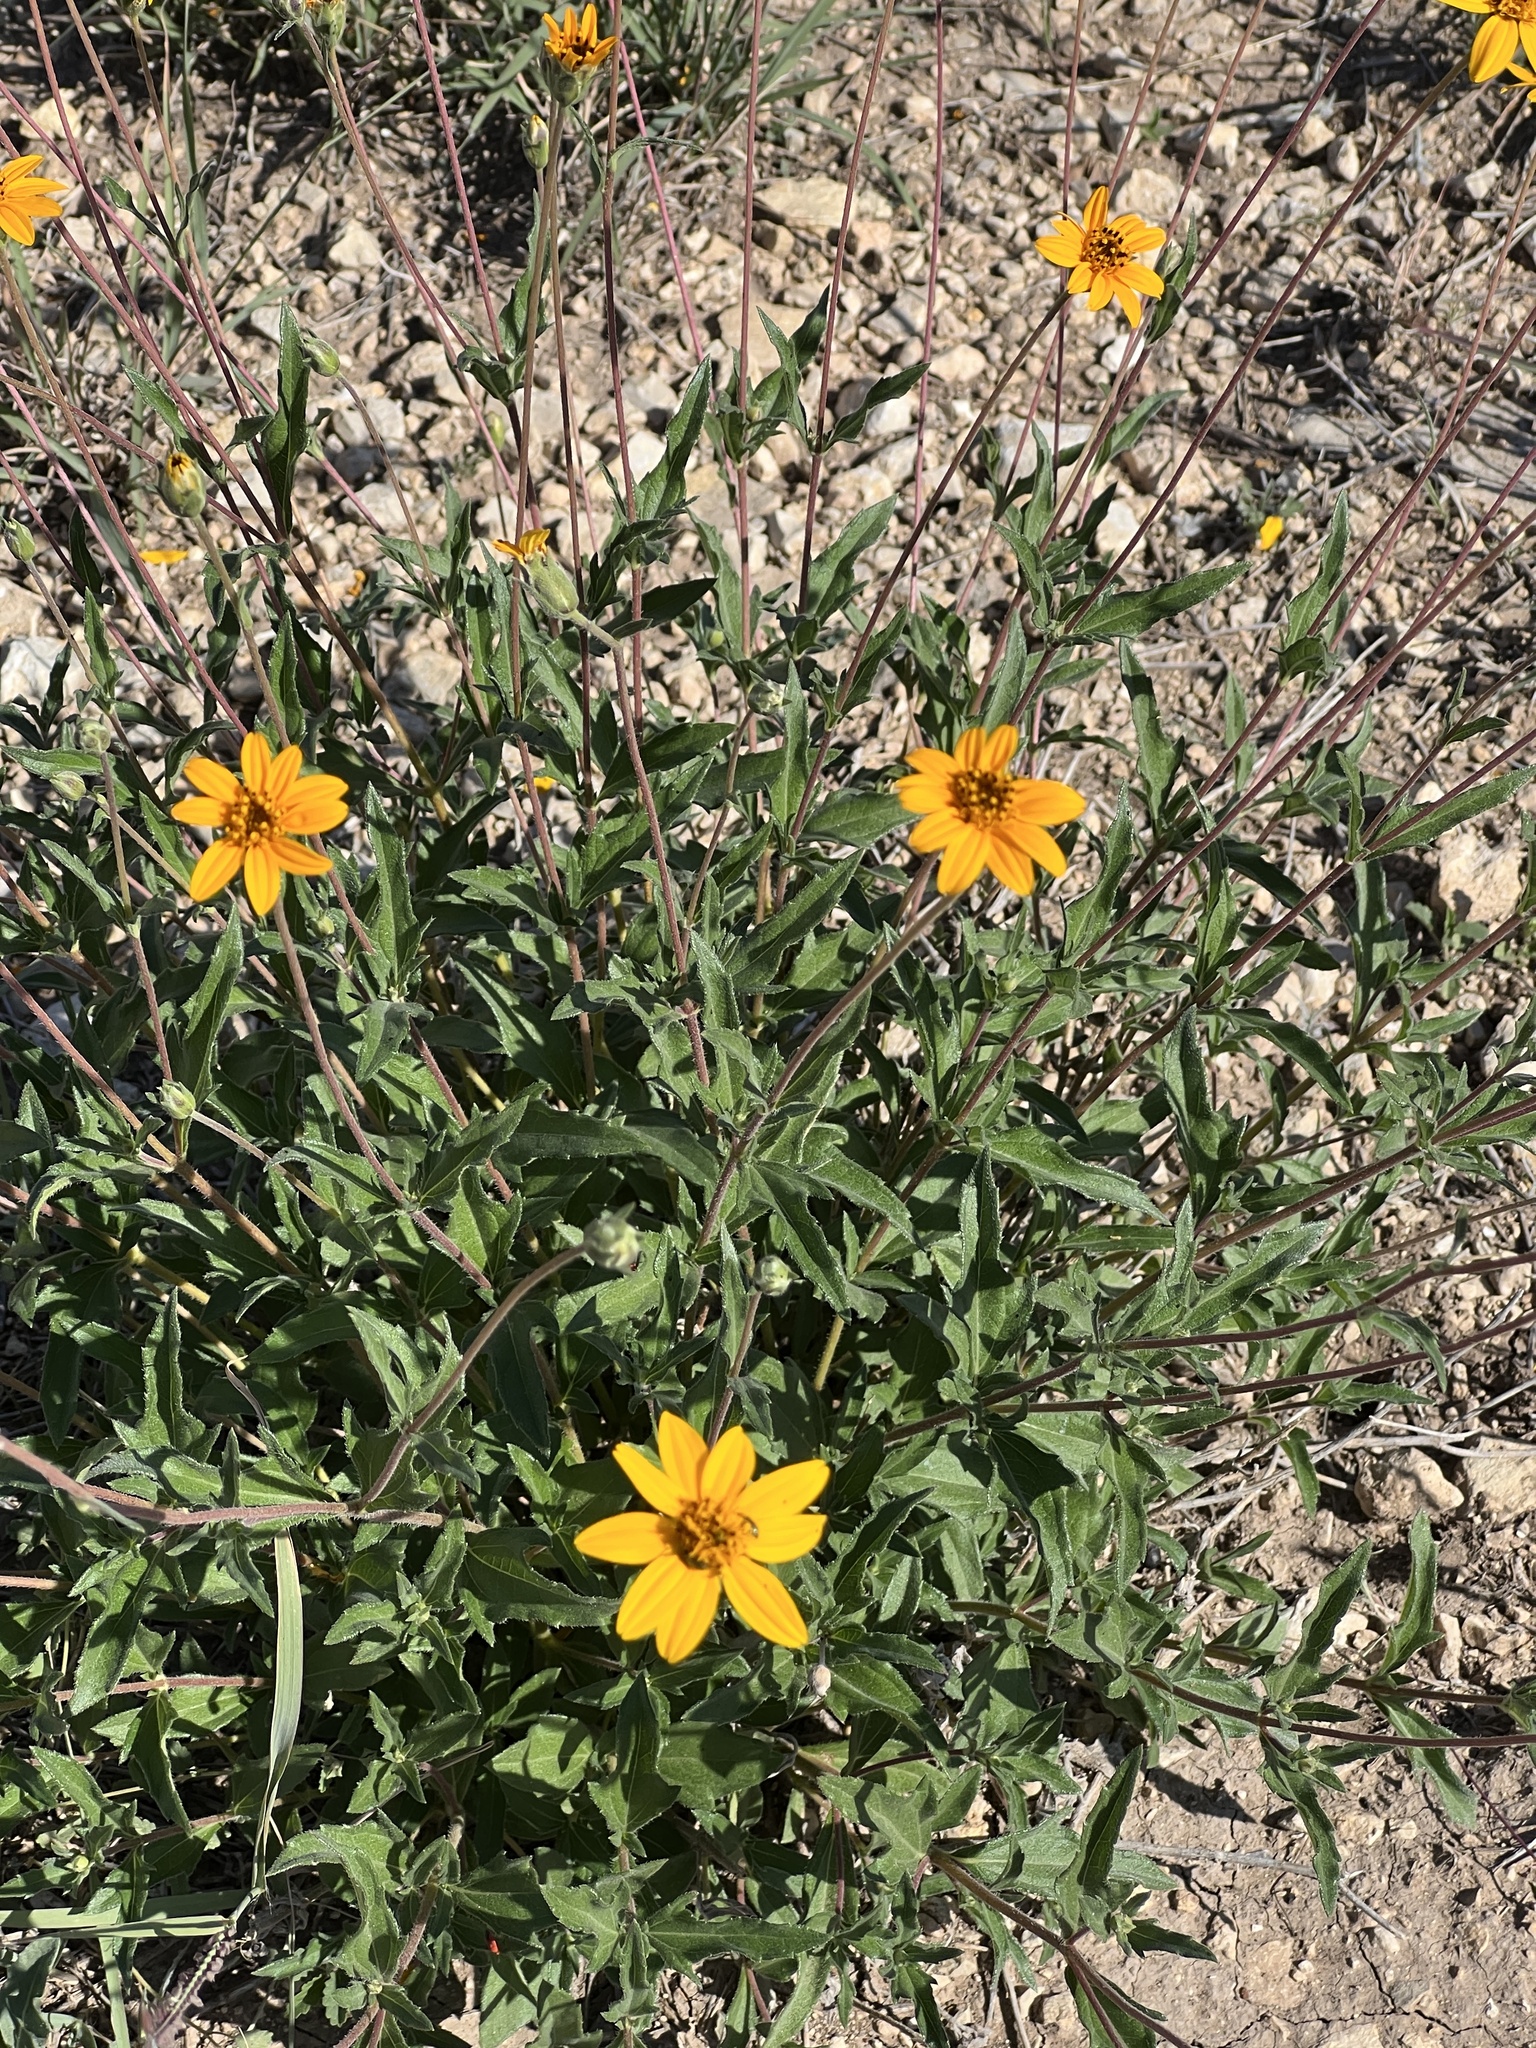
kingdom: Plantae
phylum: Tracheophyta
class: Magnoliopsida
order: Asterales
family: Asteraceae
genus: Wedelia
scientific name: Wedelia acapulcensis
